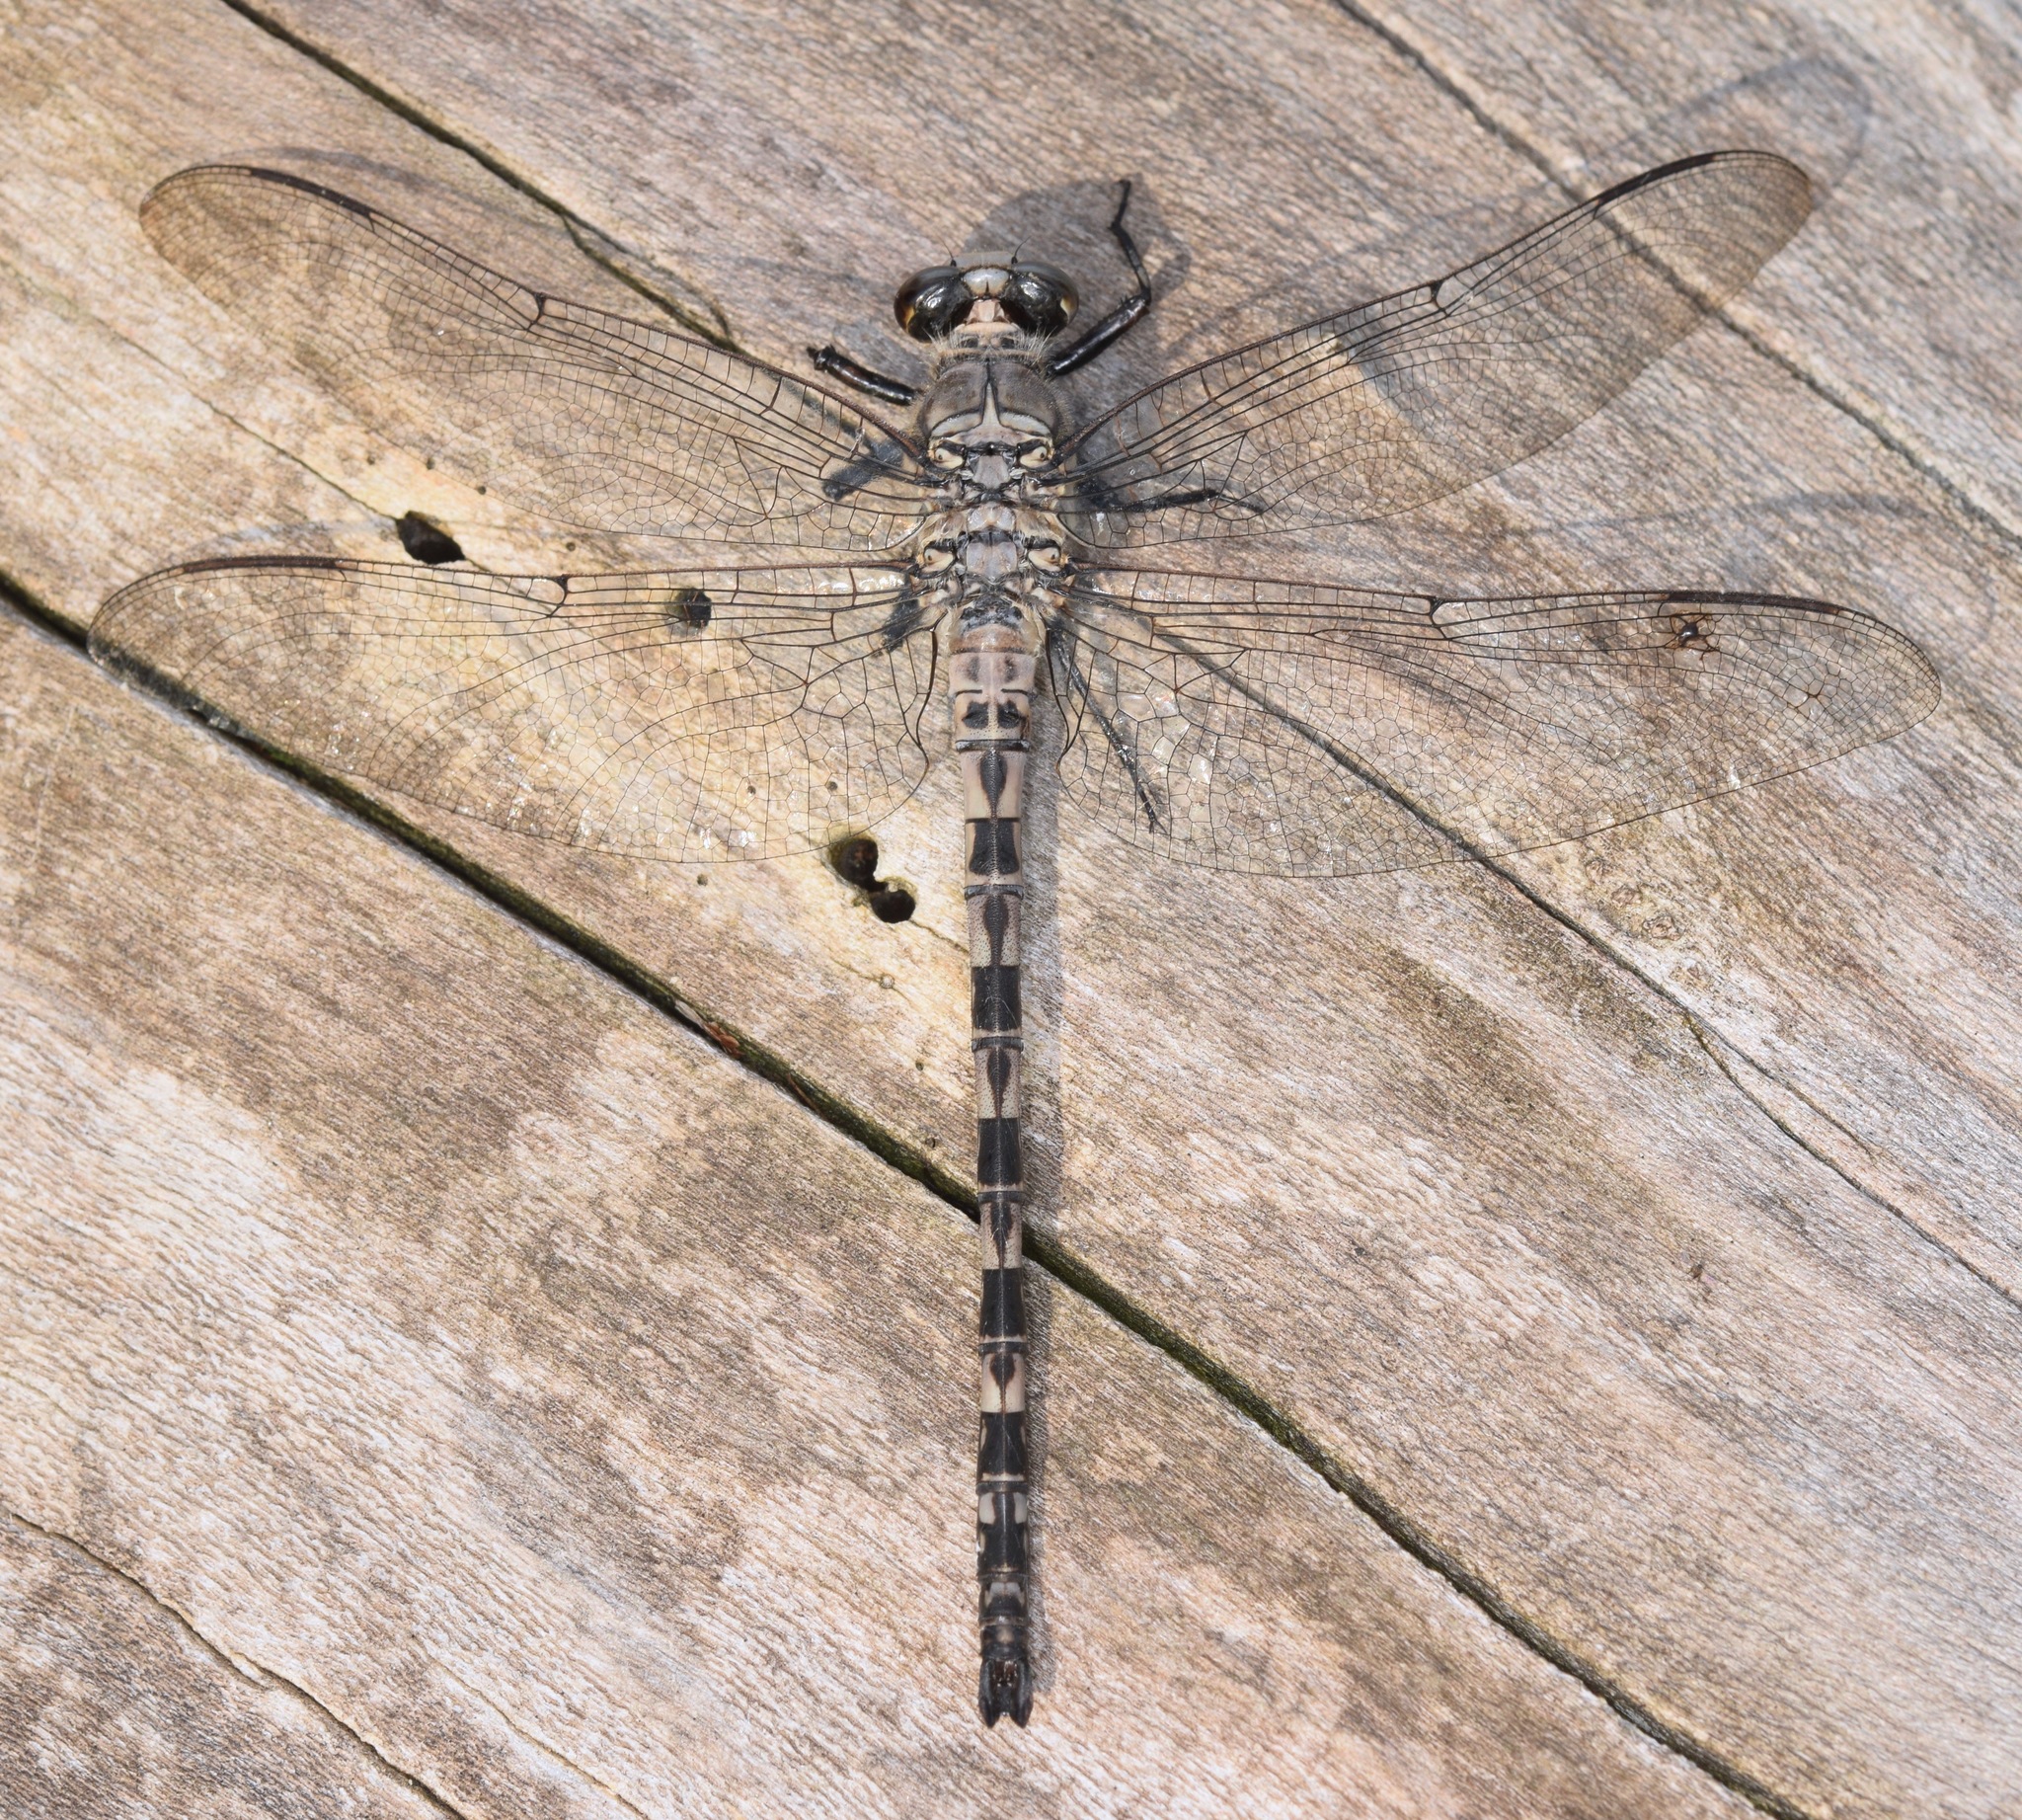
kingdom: Animalia
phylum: Arthropoda
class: Insecta
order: Odonata
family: Petaluridae
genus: Tachopteryx
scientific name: Tachopteryx thoreyi
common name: Gray petaltail
